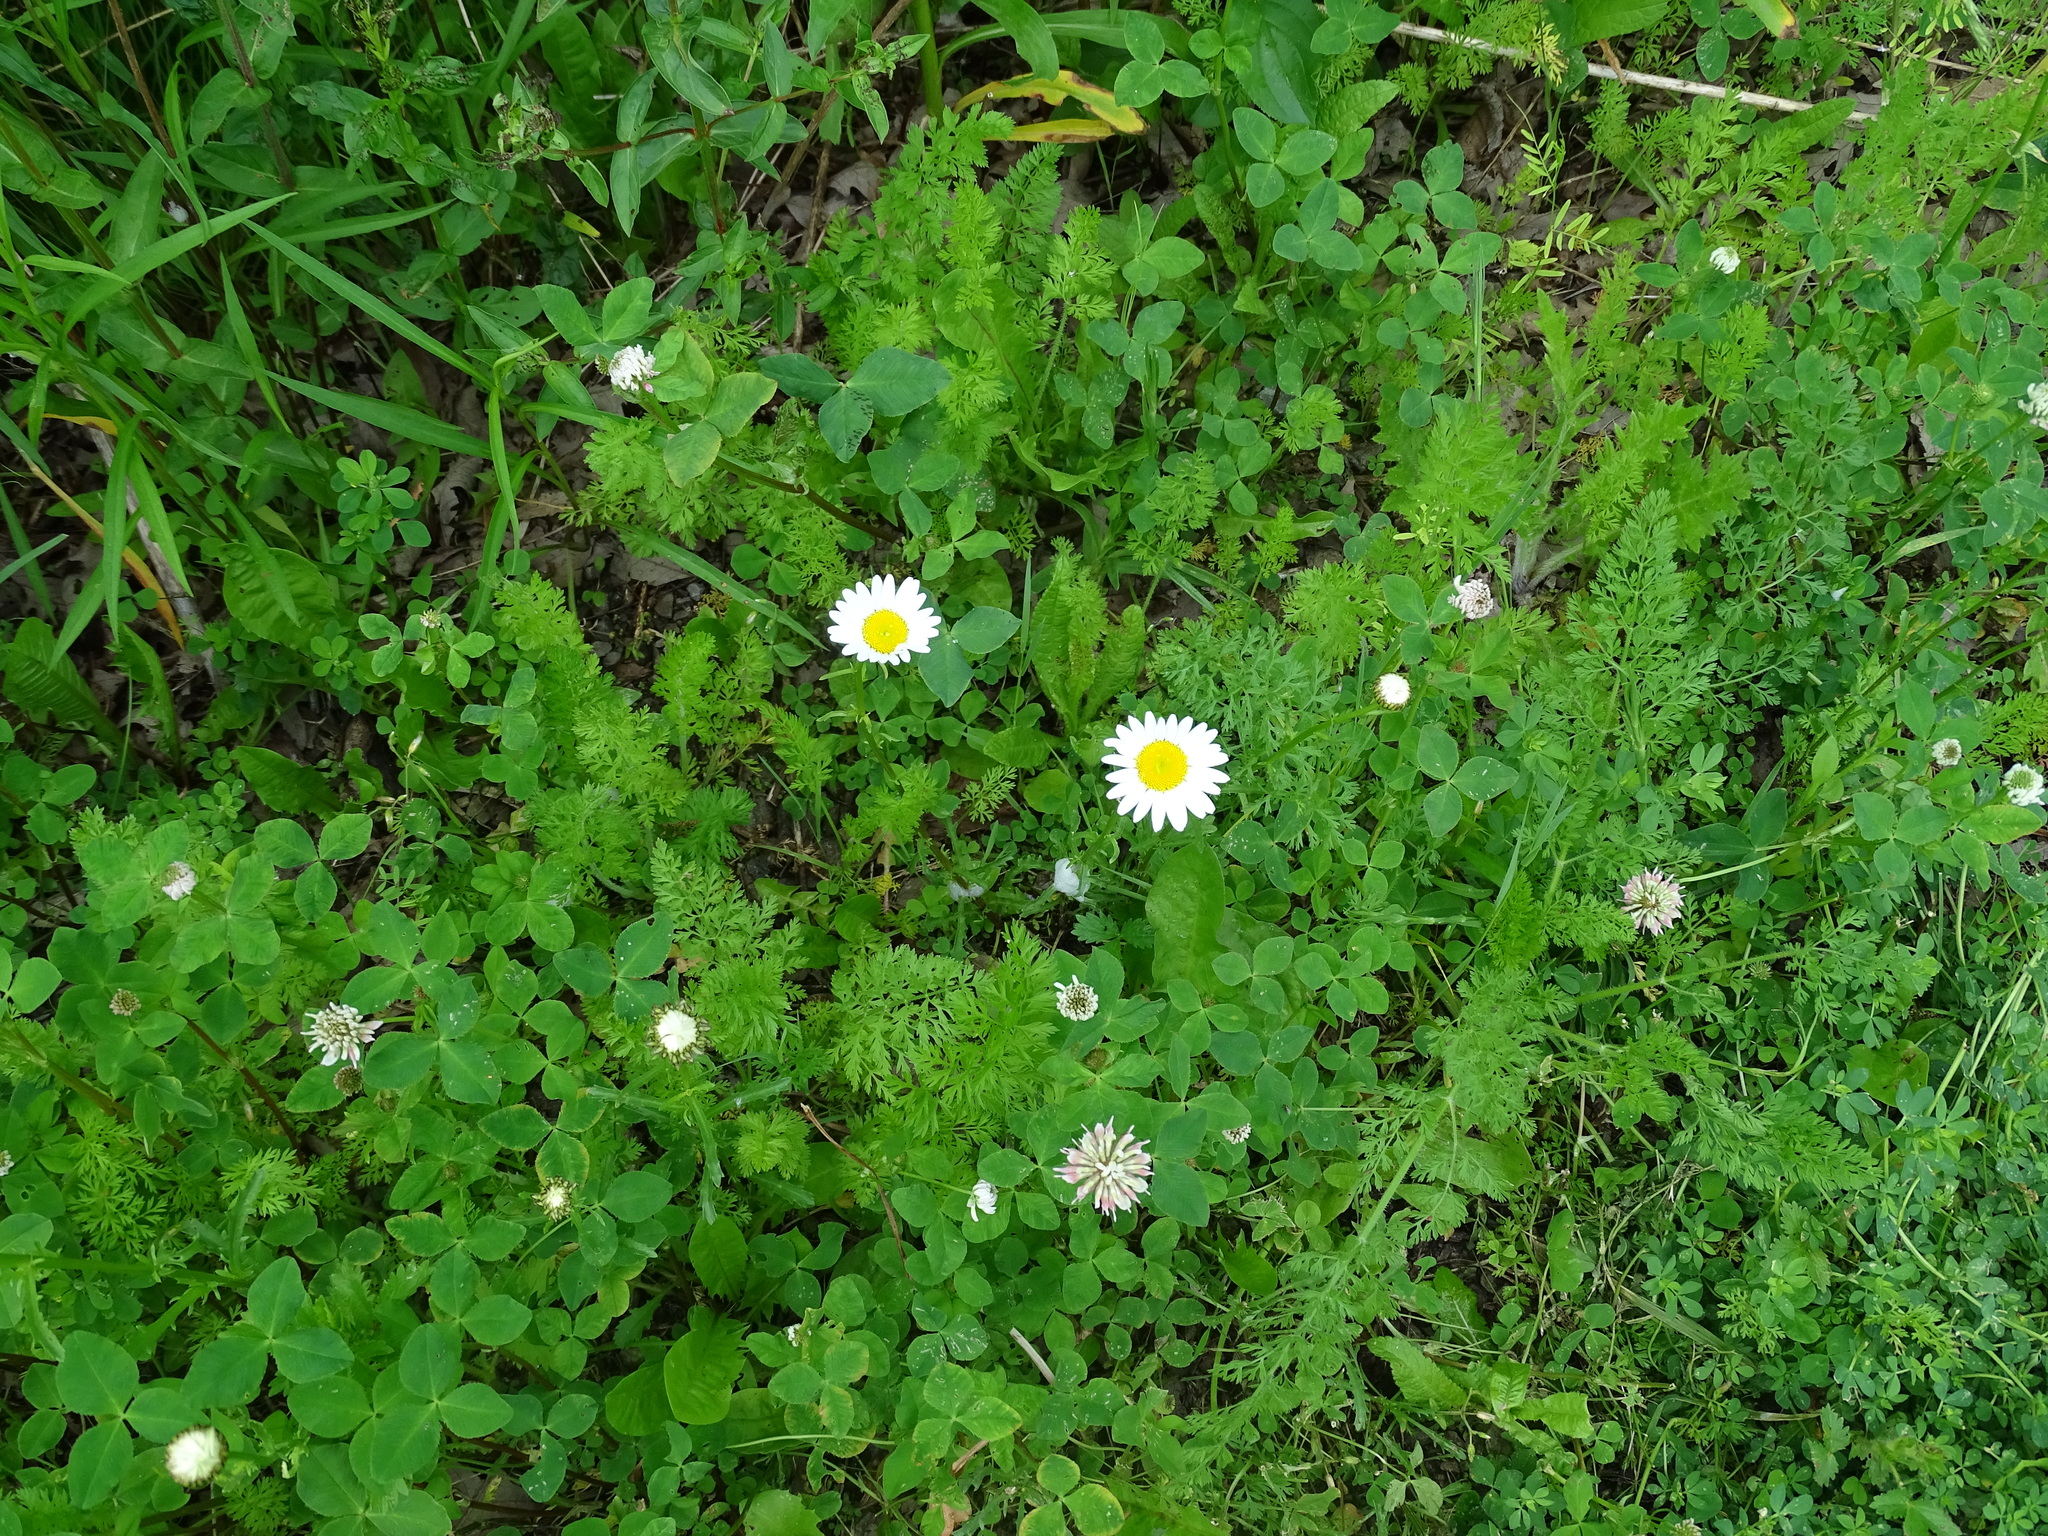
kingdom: Plantae
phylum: Tracheophyta
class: Magnoliopsida
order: Asterales
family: Asteraceae
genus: Leucanthemum
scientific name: Leucanthemum vulgare
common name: Oxeye daisy
